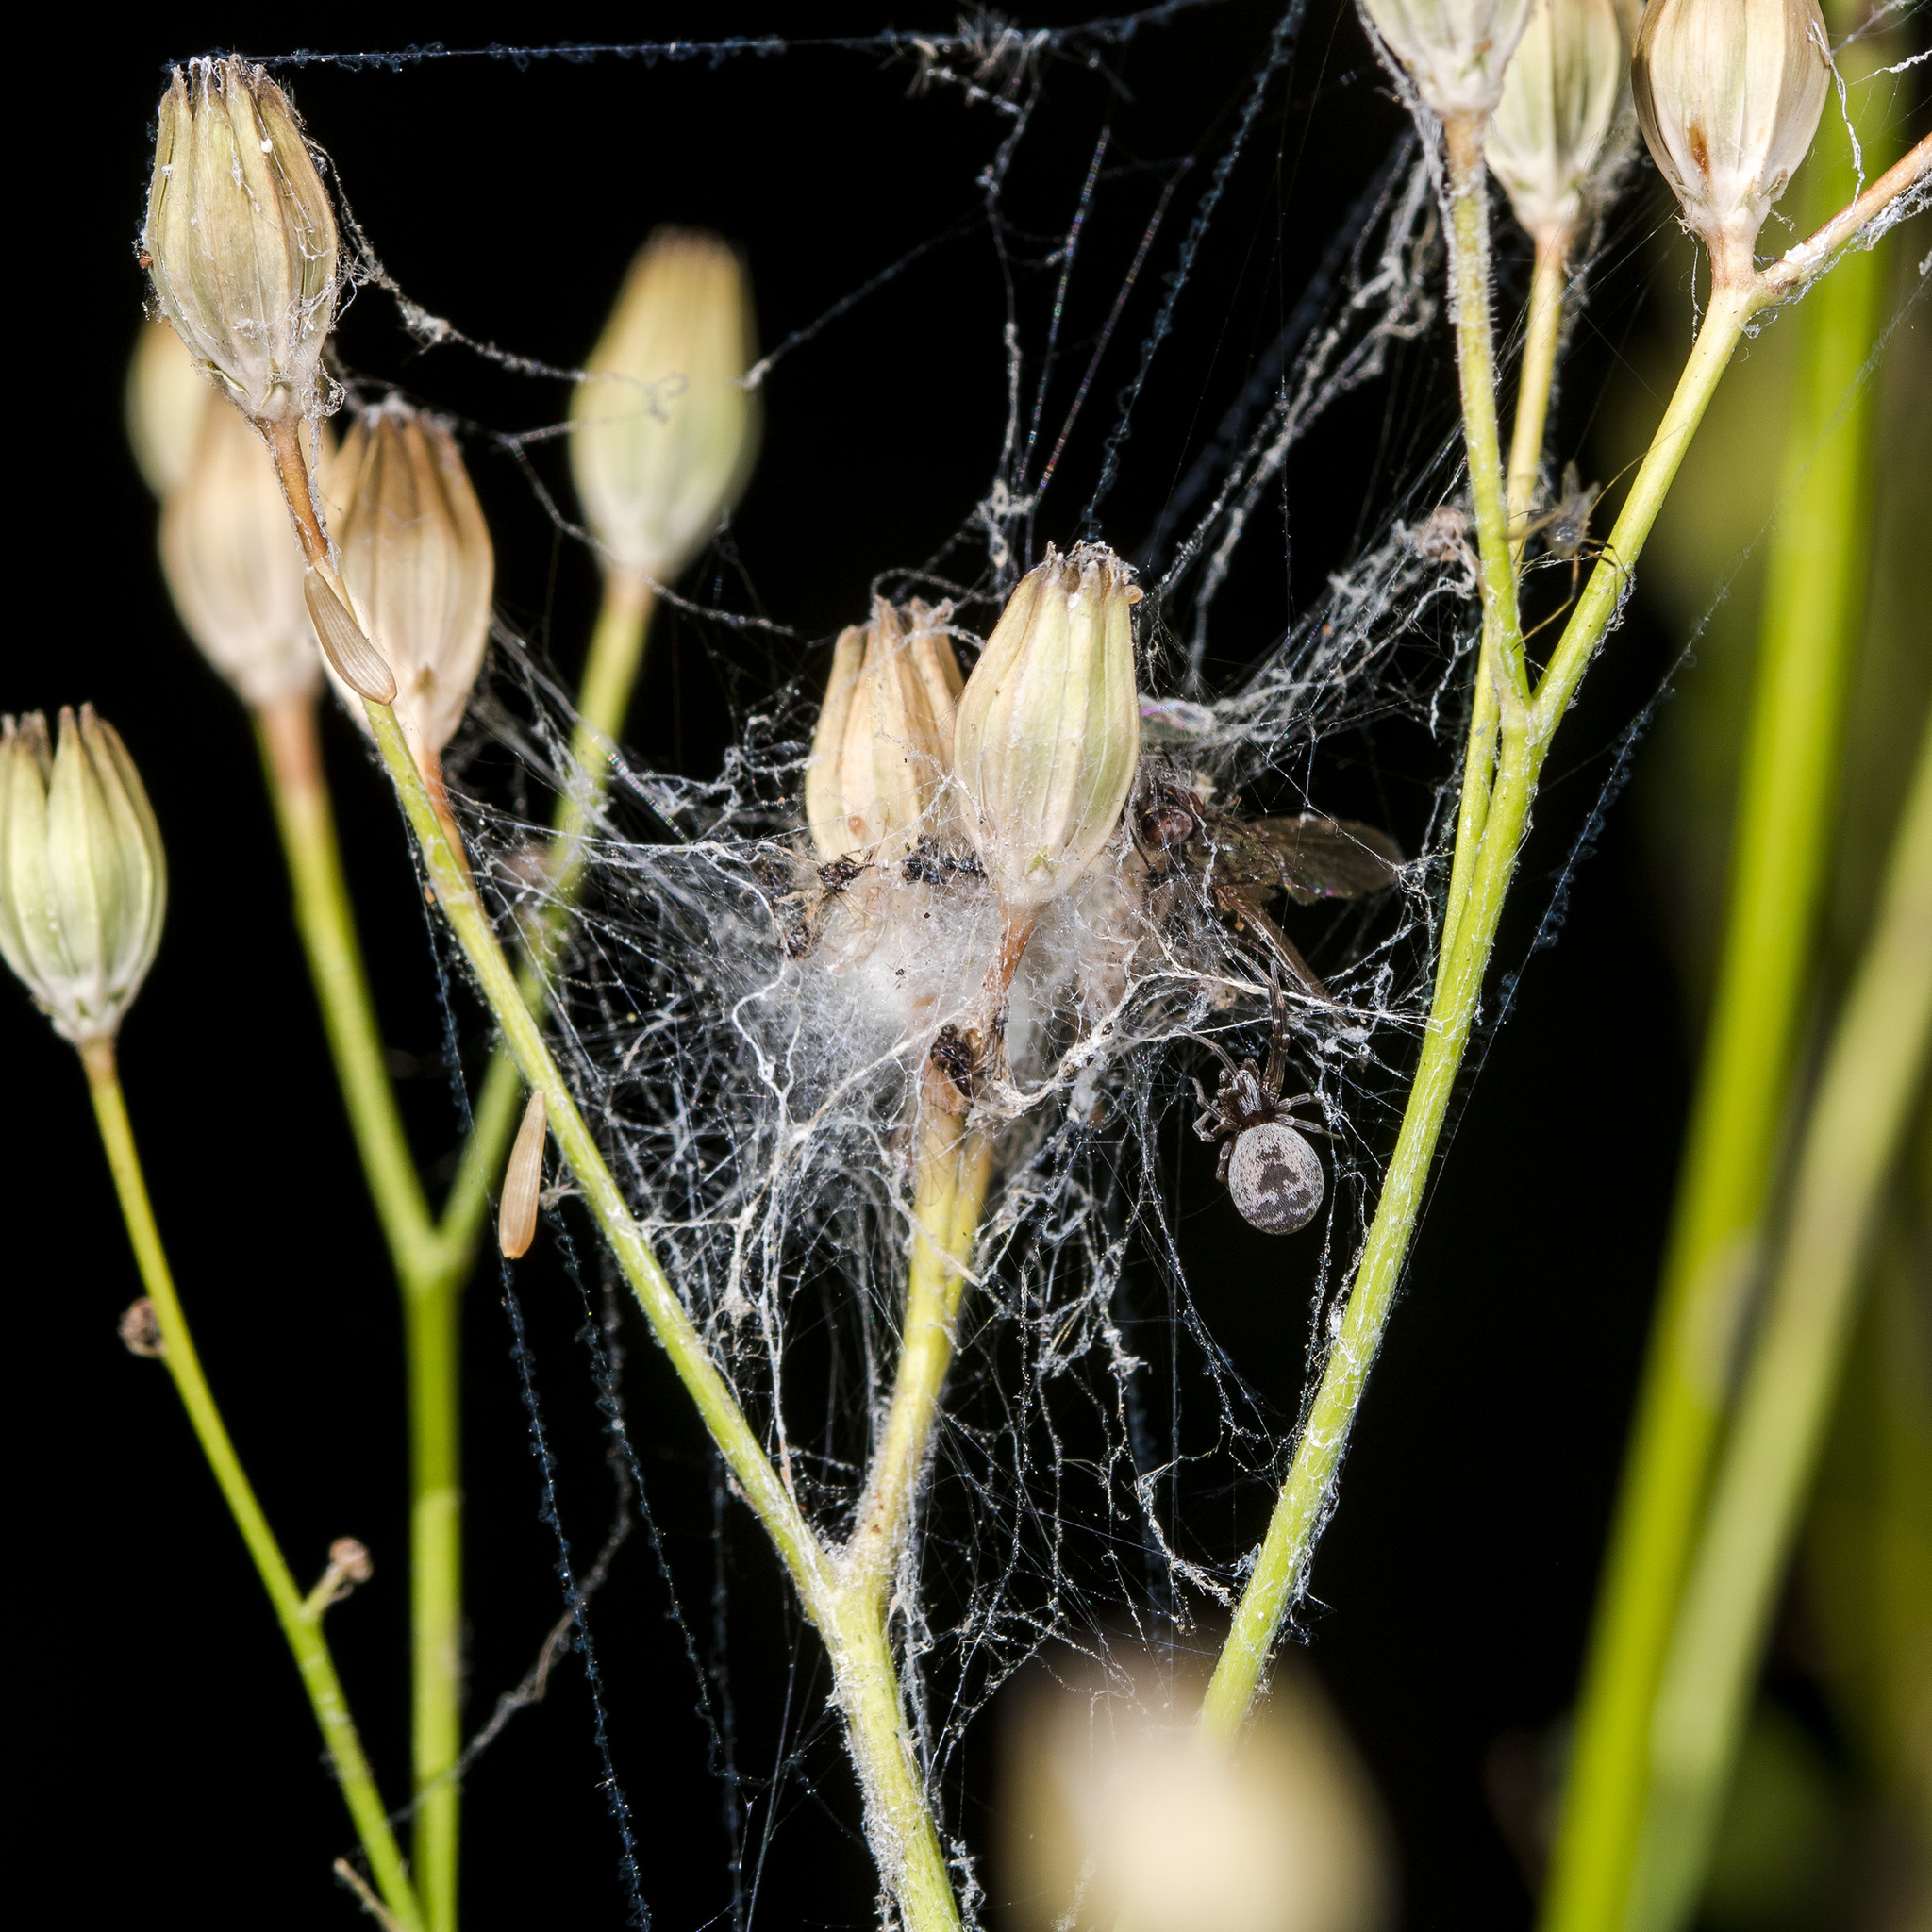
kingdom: Animalia
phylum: Arthropoda
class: Arachnida
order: Araneae
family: Dictynidae
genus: Brigittea
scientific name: Brigittea latens
